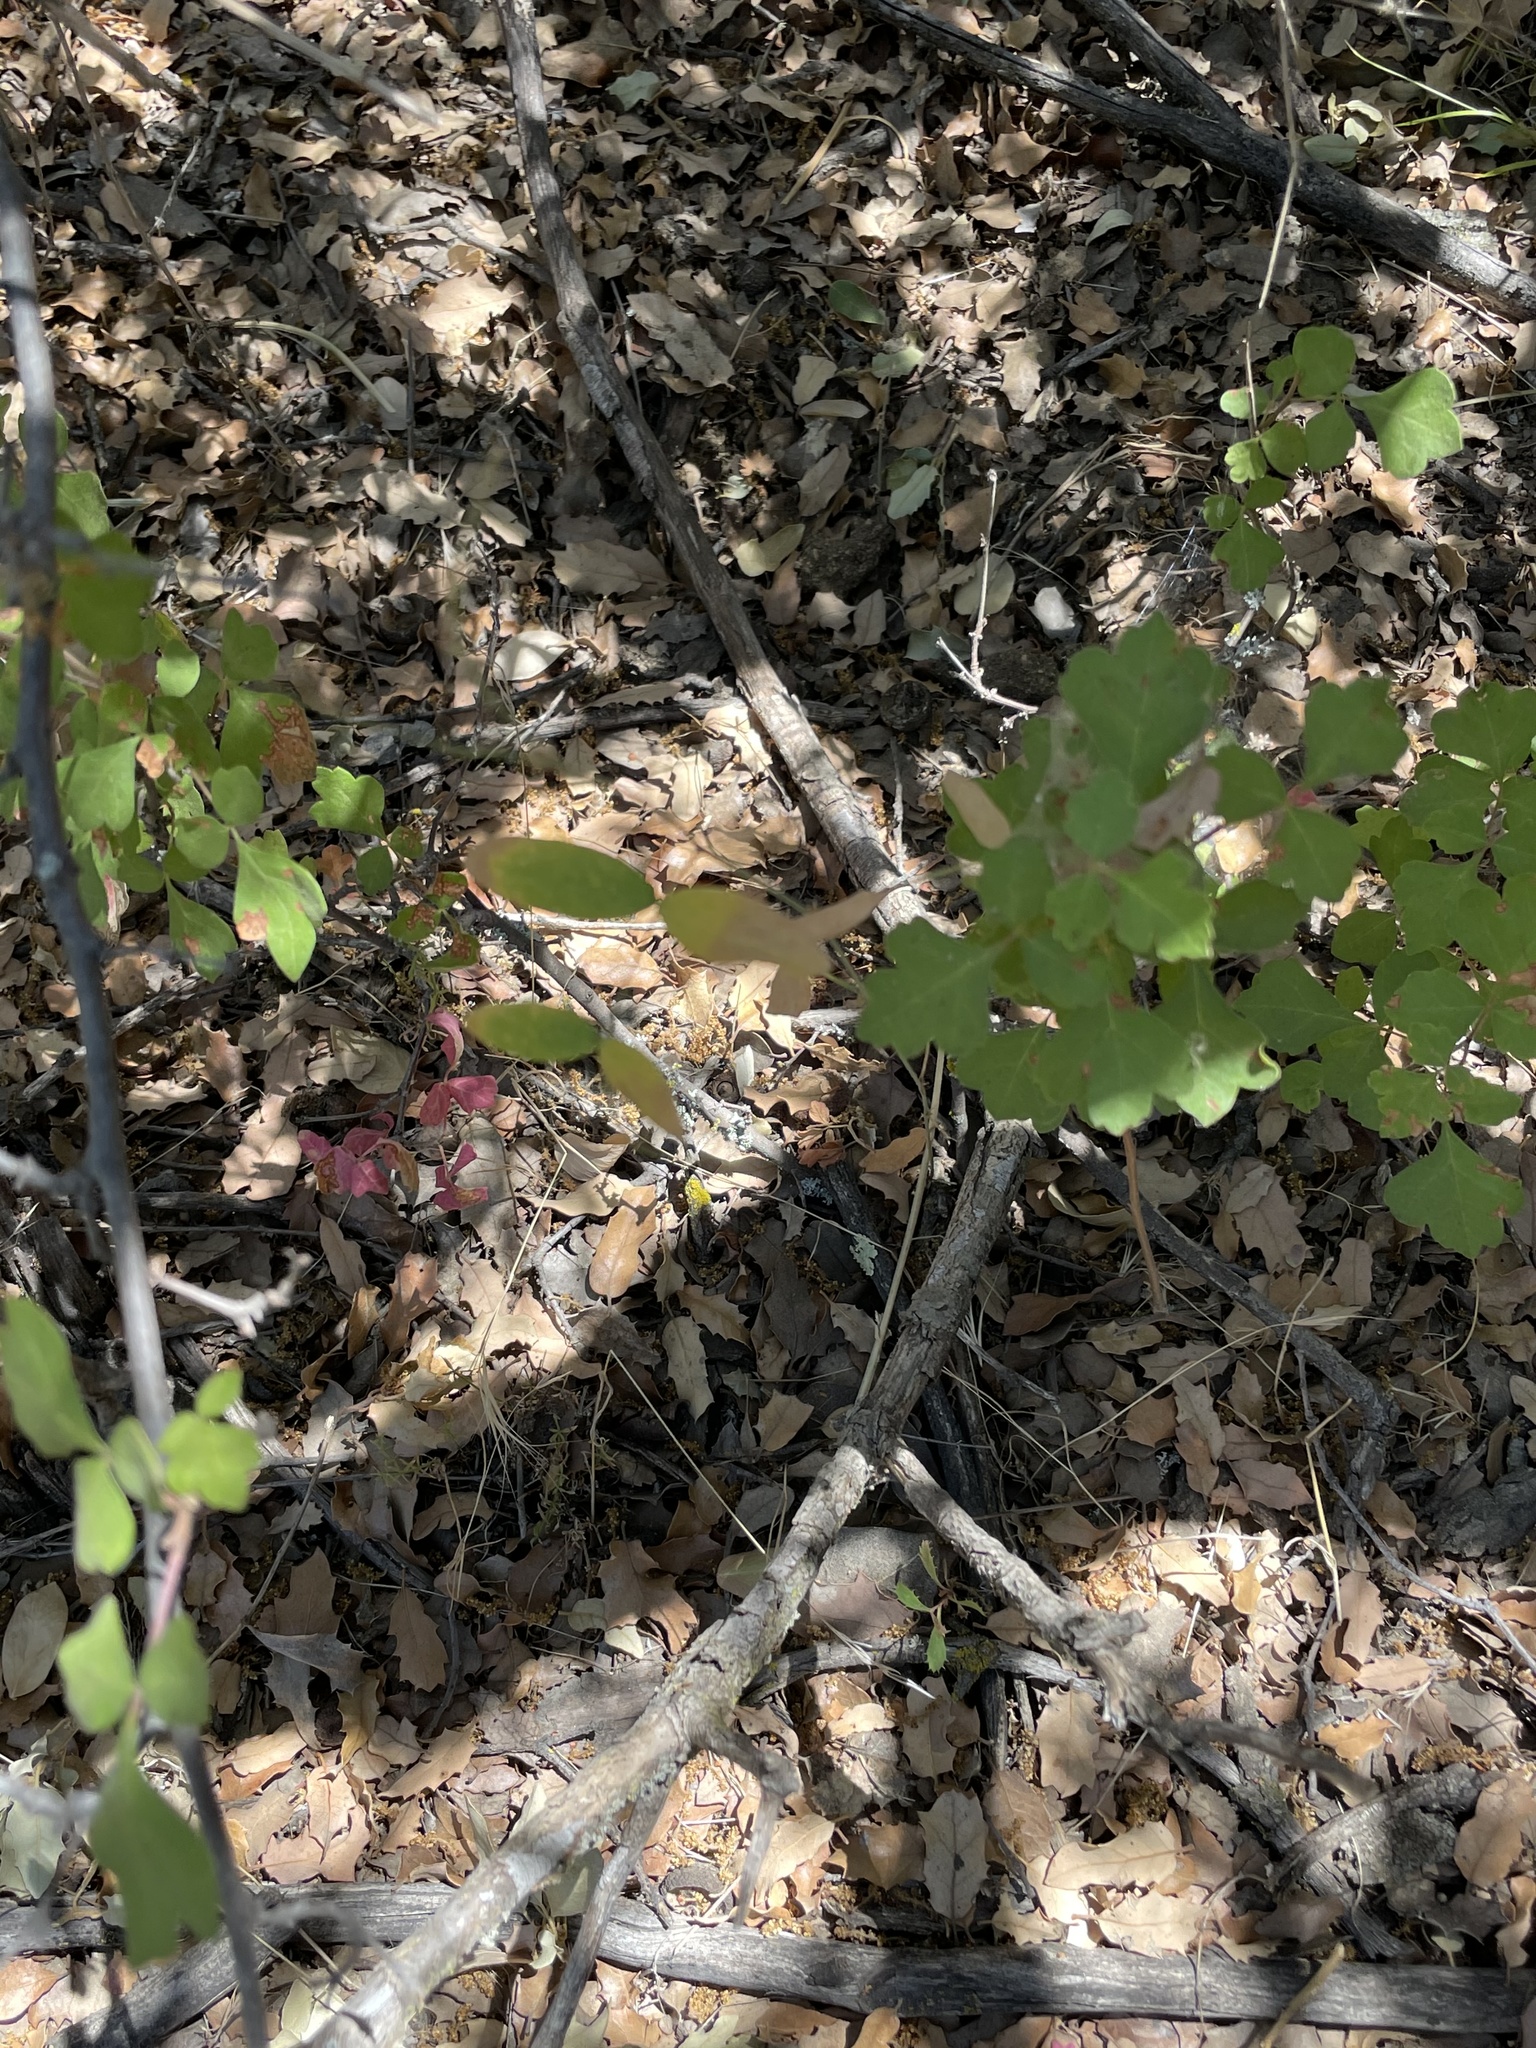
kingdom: Plantae
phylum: Tracheophyta
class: Magnoliopsida
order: Fabales
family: Fabaceae
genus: Lathyrus
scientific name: Lathyrus splendens
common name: Campo-pea
